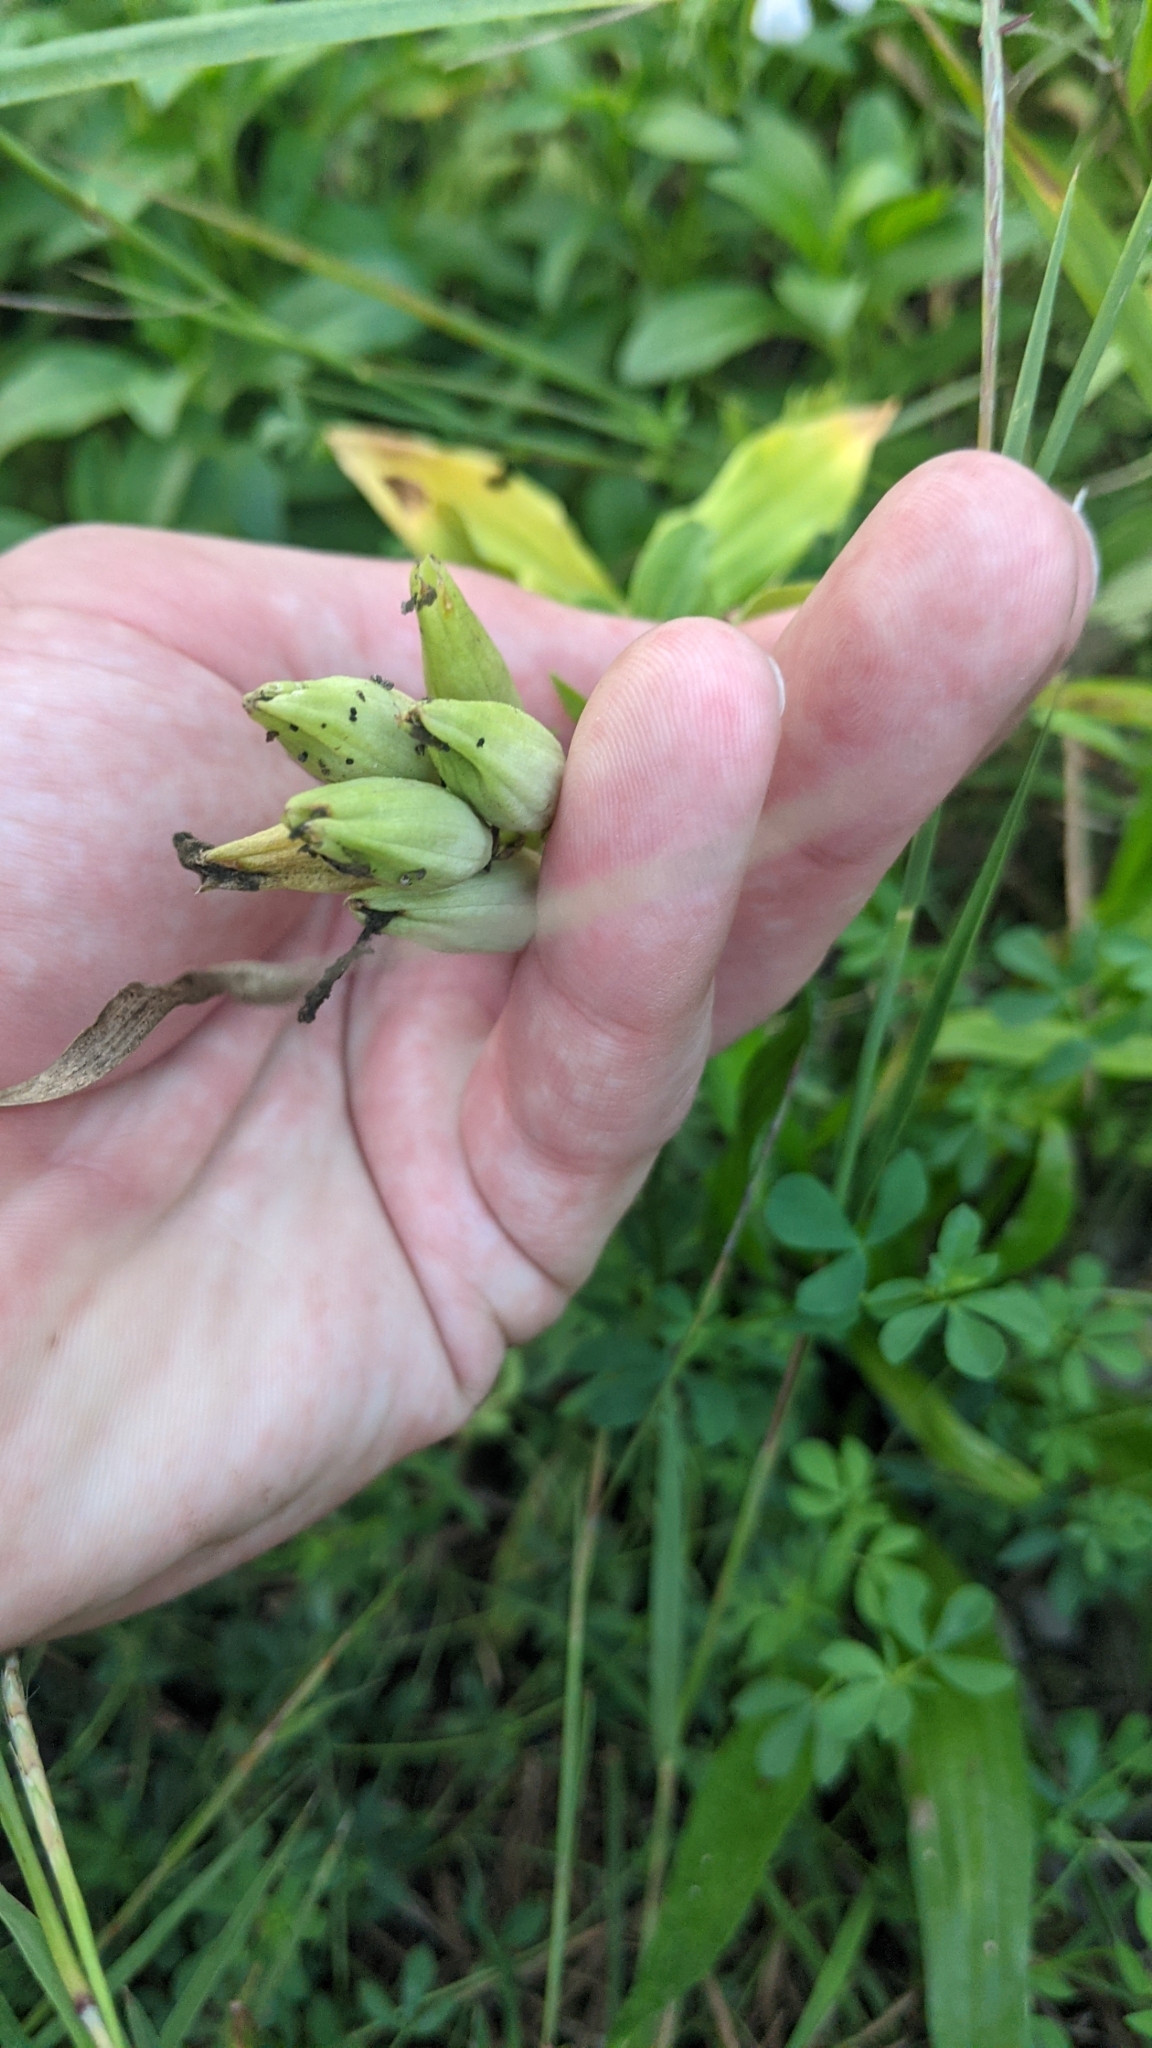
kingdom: Plantae
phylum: Tracheophyta
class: Magnoliopsida
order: Gentianales
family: Gentianaceae
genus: Gentiana
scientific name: Gentiana alba
